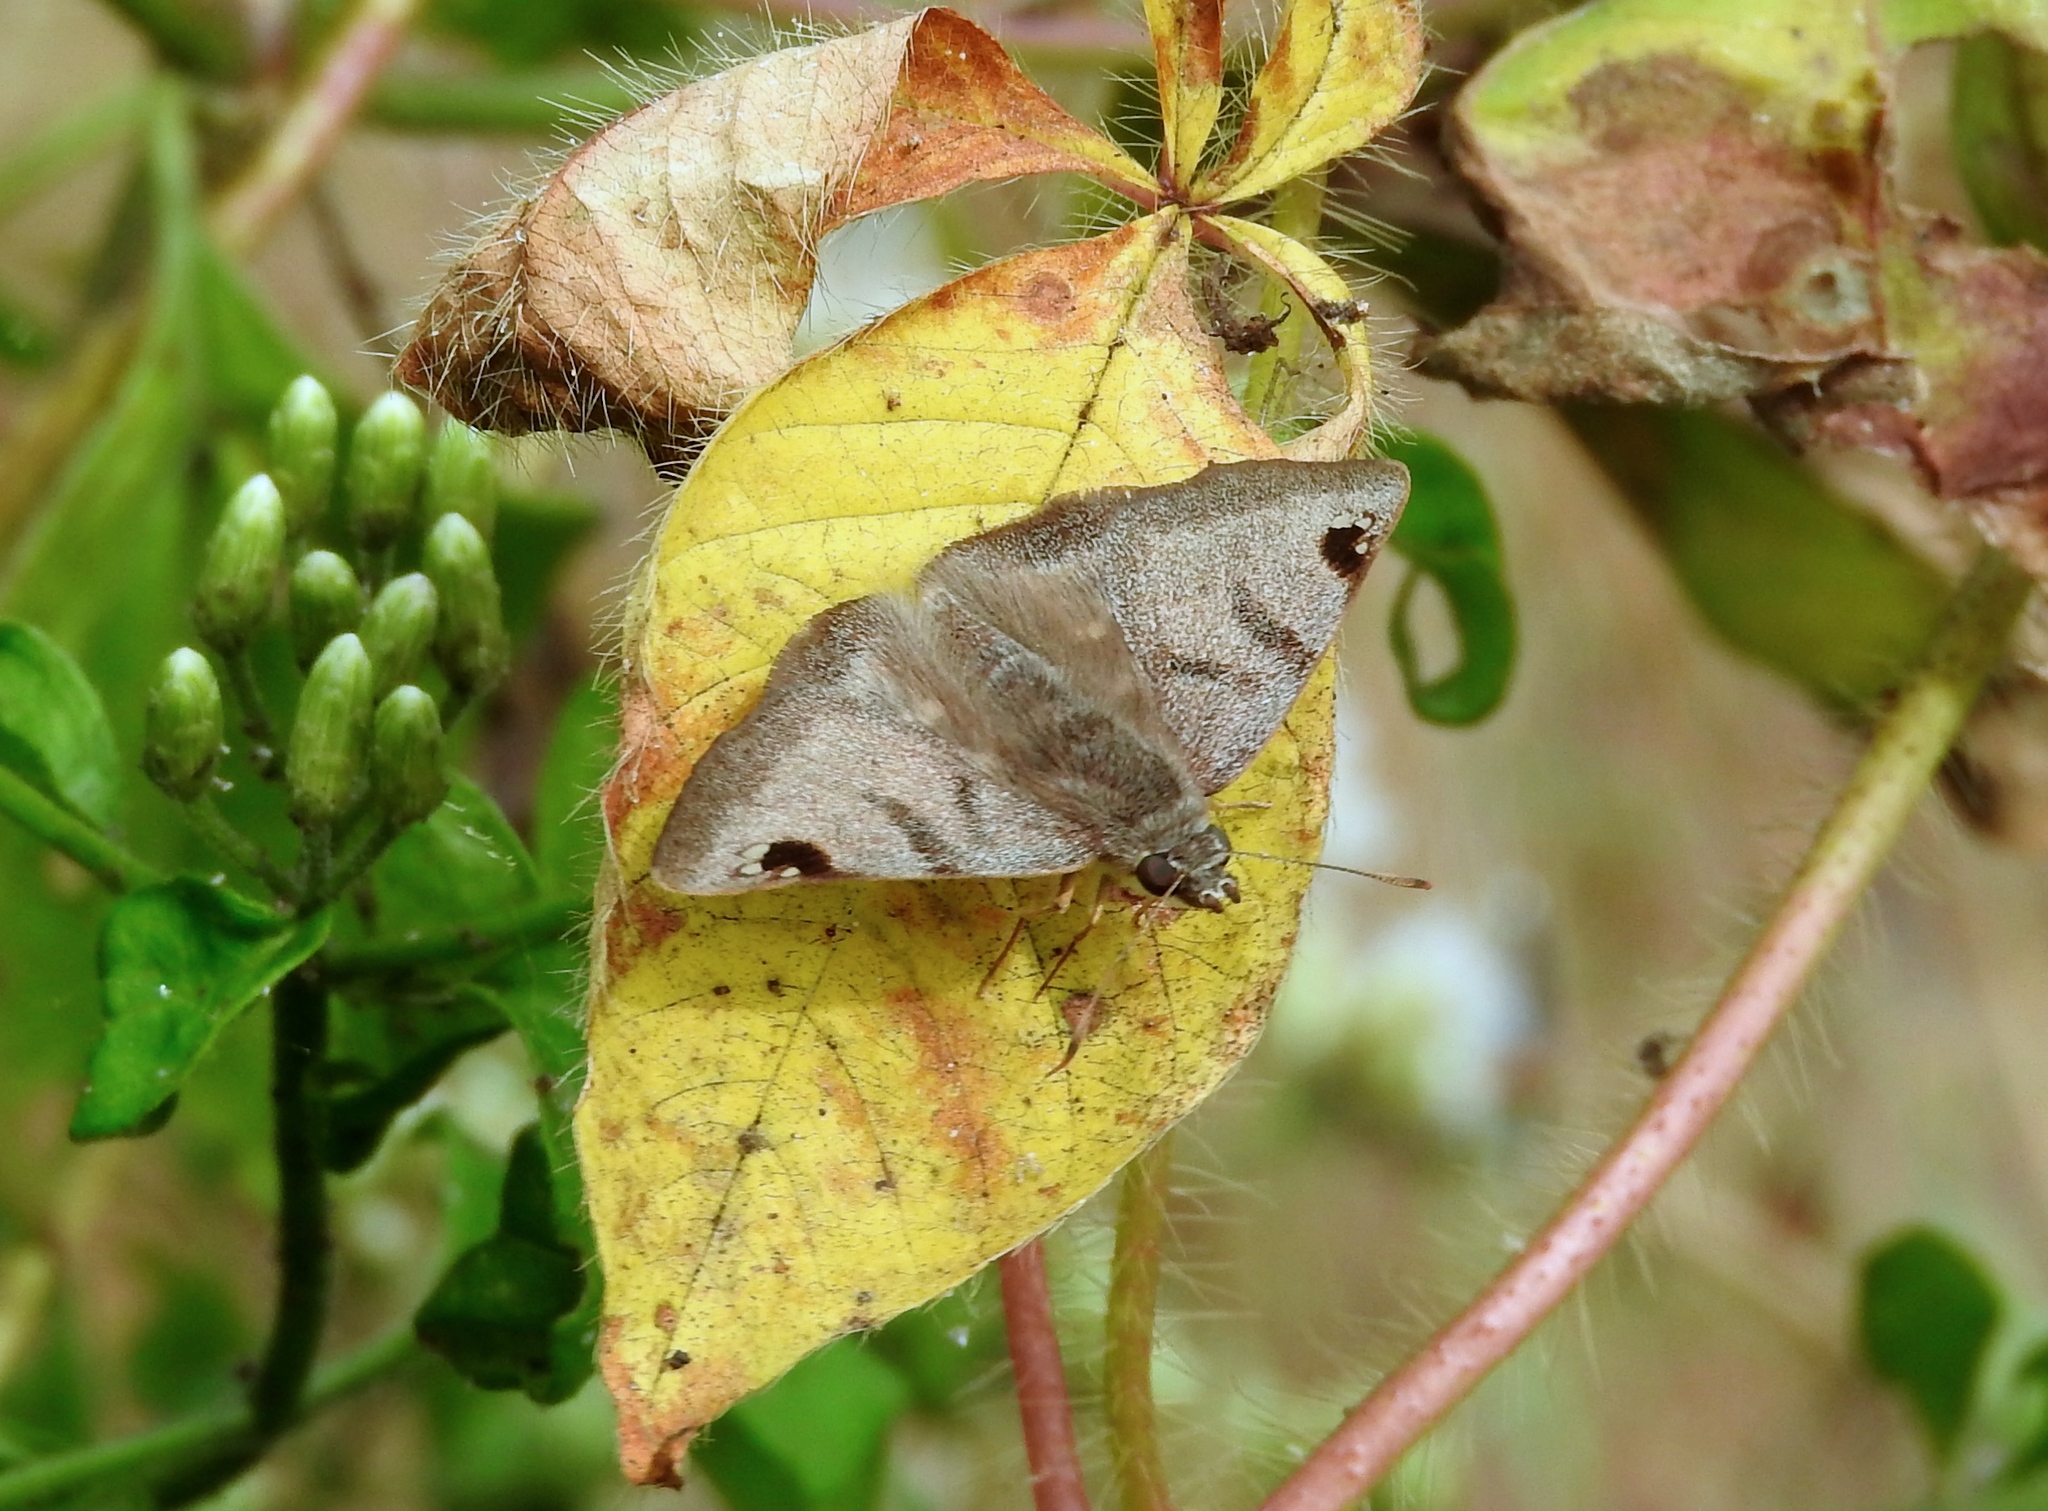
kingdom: Animalia
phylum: Arthropoda
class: Insecta
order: Lepidoptera
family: Hesperiidae
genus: Arteurotia
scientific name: Arteurotia tractipennis
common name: Starred skipper
